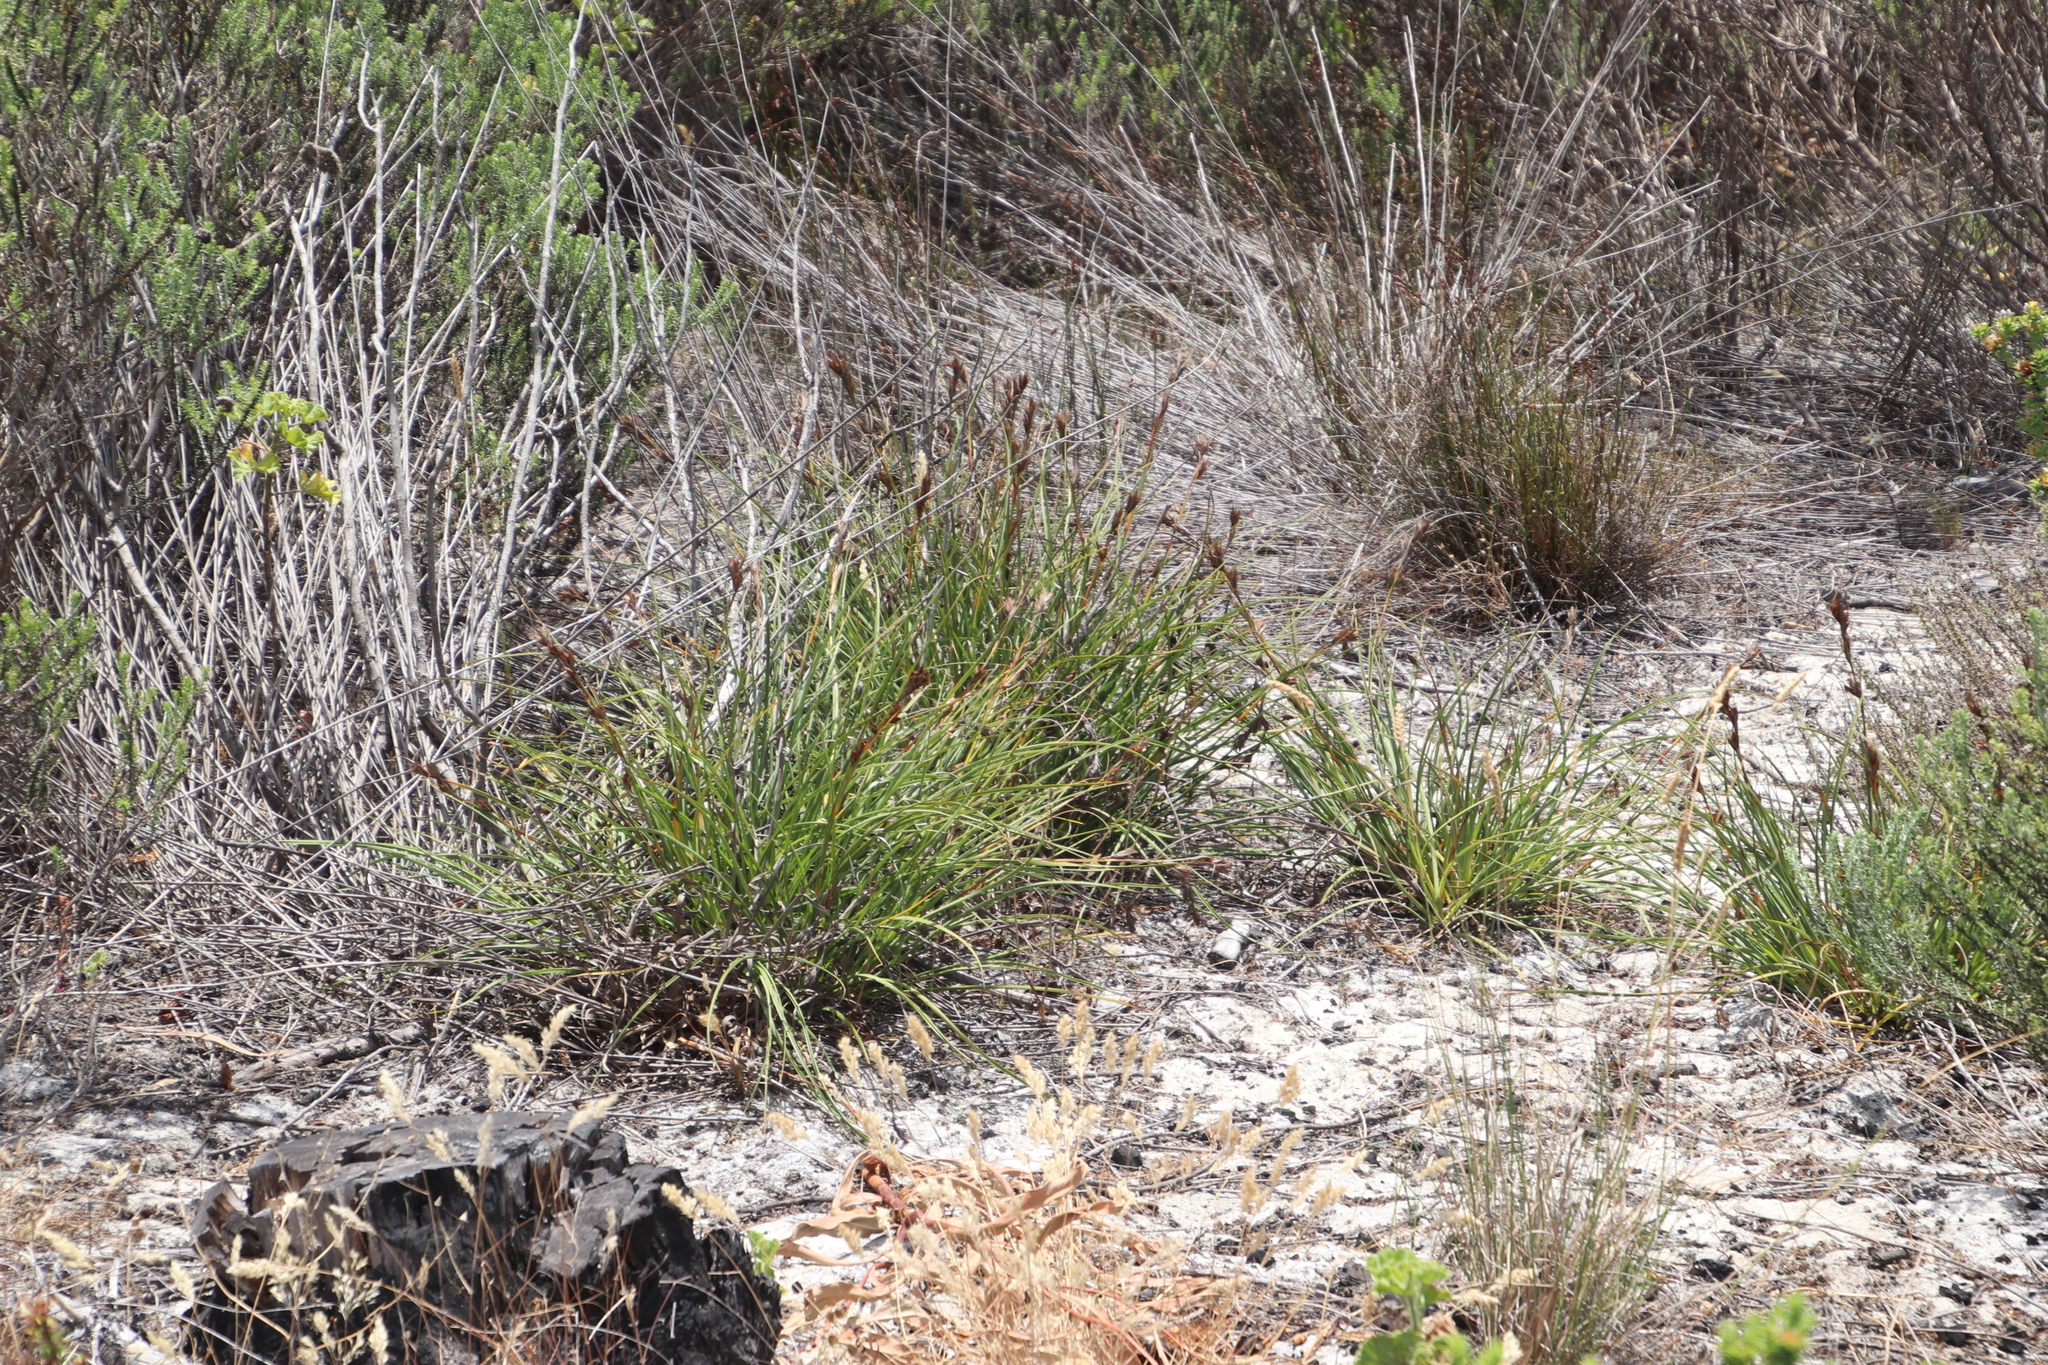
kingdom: Plantae
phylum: Tracheophyta
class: Liliopsida
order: Poales
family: Cyperaceae
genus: Tetraria
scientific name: Tetraria eximia
